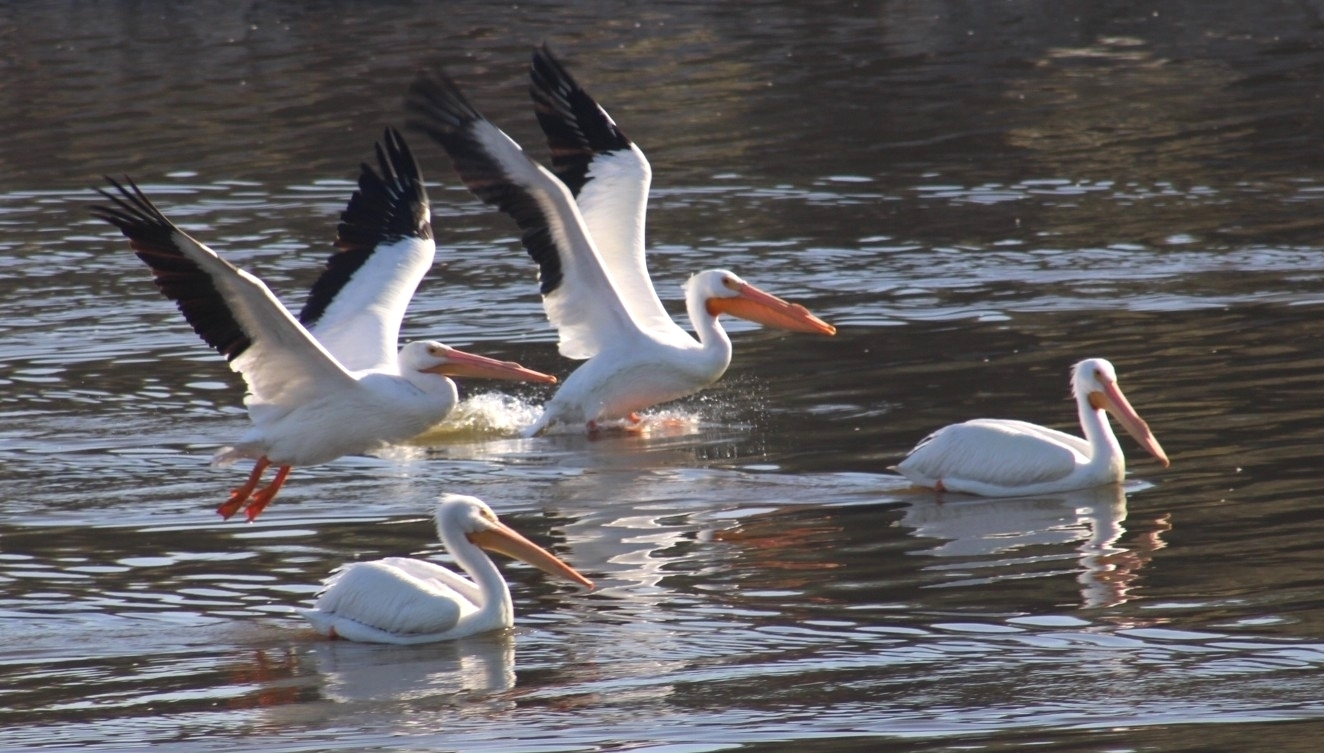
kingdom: Animalia
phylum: Chordata
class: Aves
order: Pelecaniformes
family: Pelecanidae
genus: Pelecanus
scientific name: Pelecanus erythrorhynchos
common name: American white pelican
